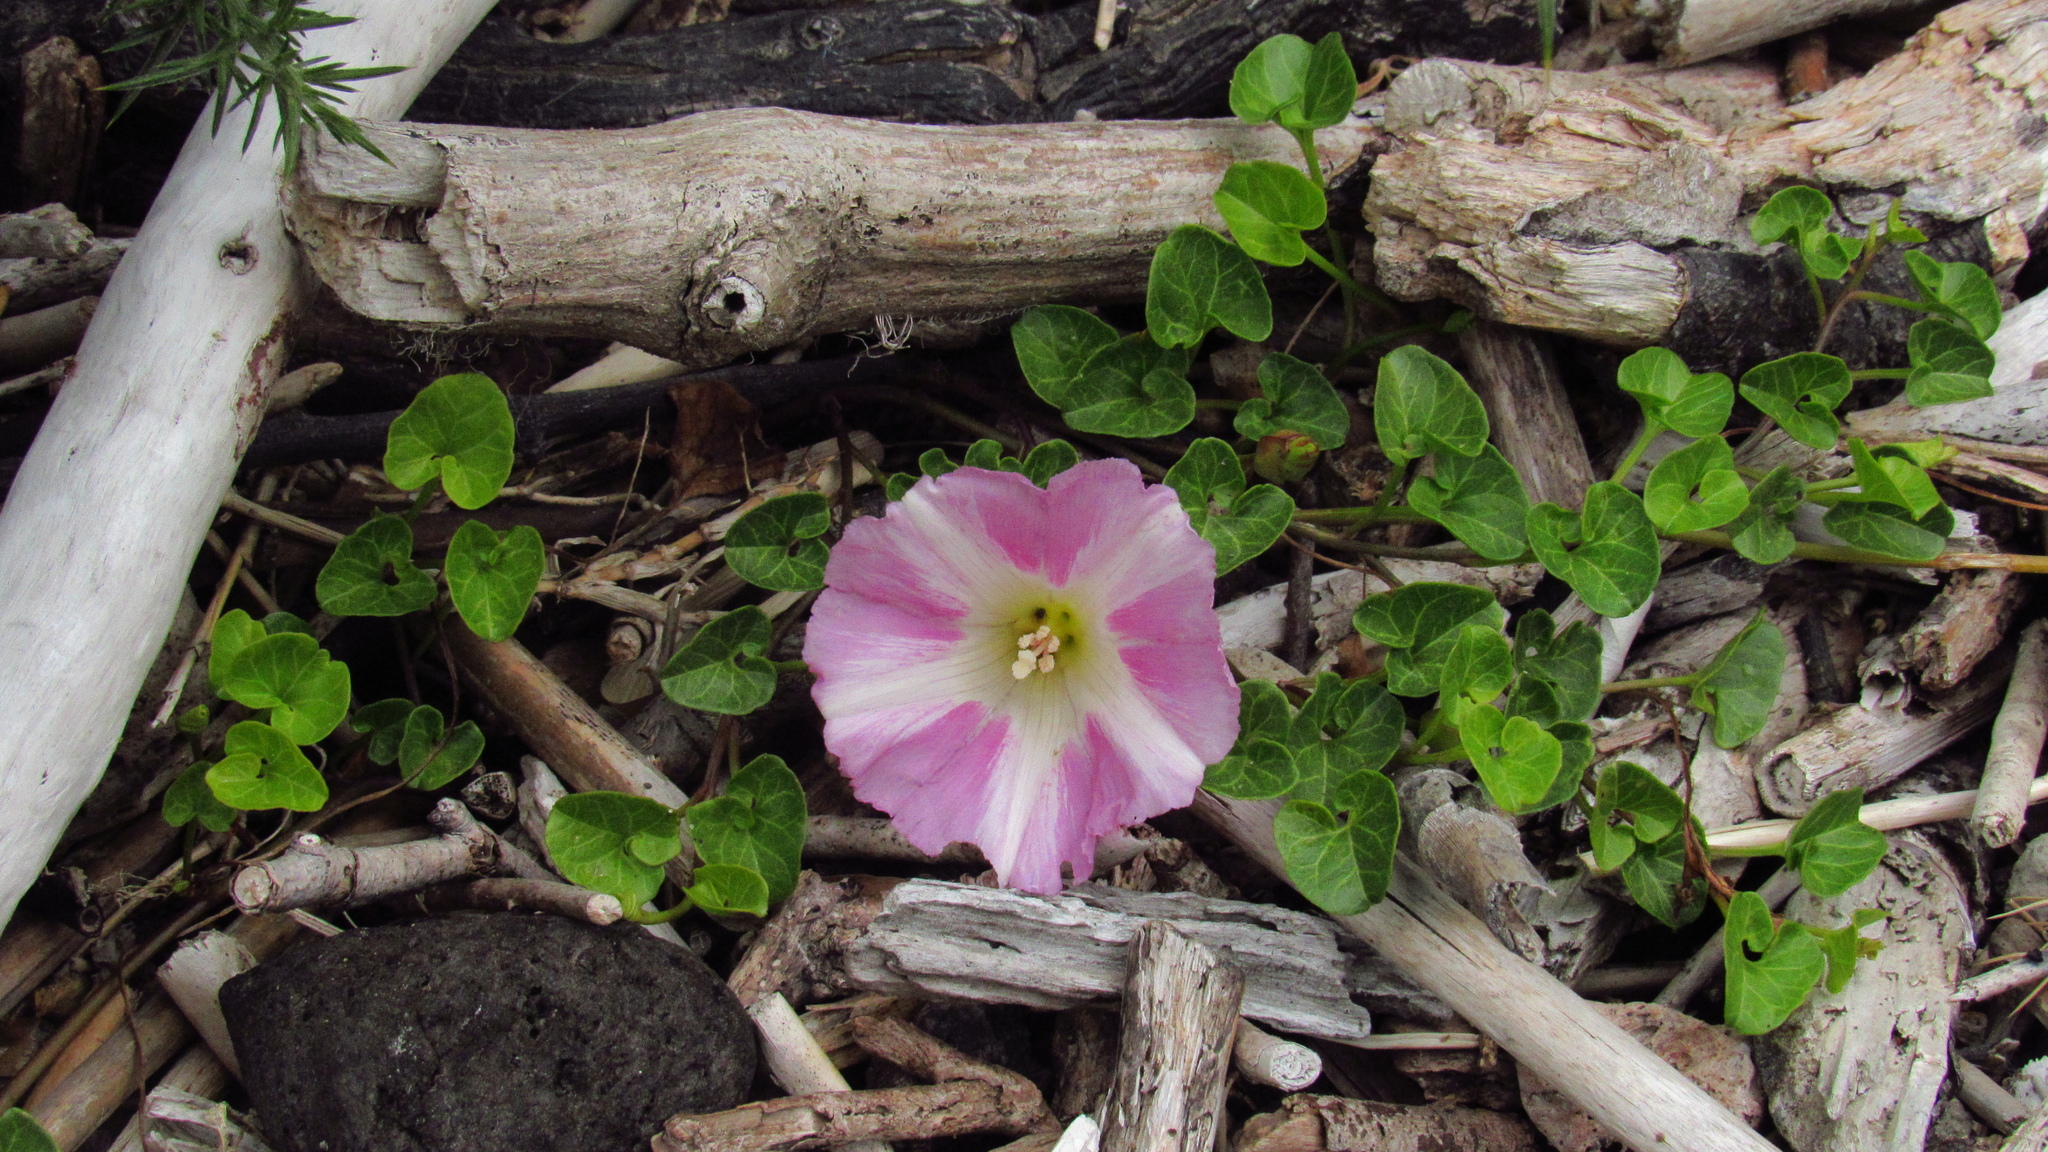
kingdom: Plantae
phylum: Tracheophyta
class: Magnoliopsida
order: Solanales
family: Convolvulaceae
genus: Calystegia
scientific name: Calystegia soldanella
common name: Sea bindweed
